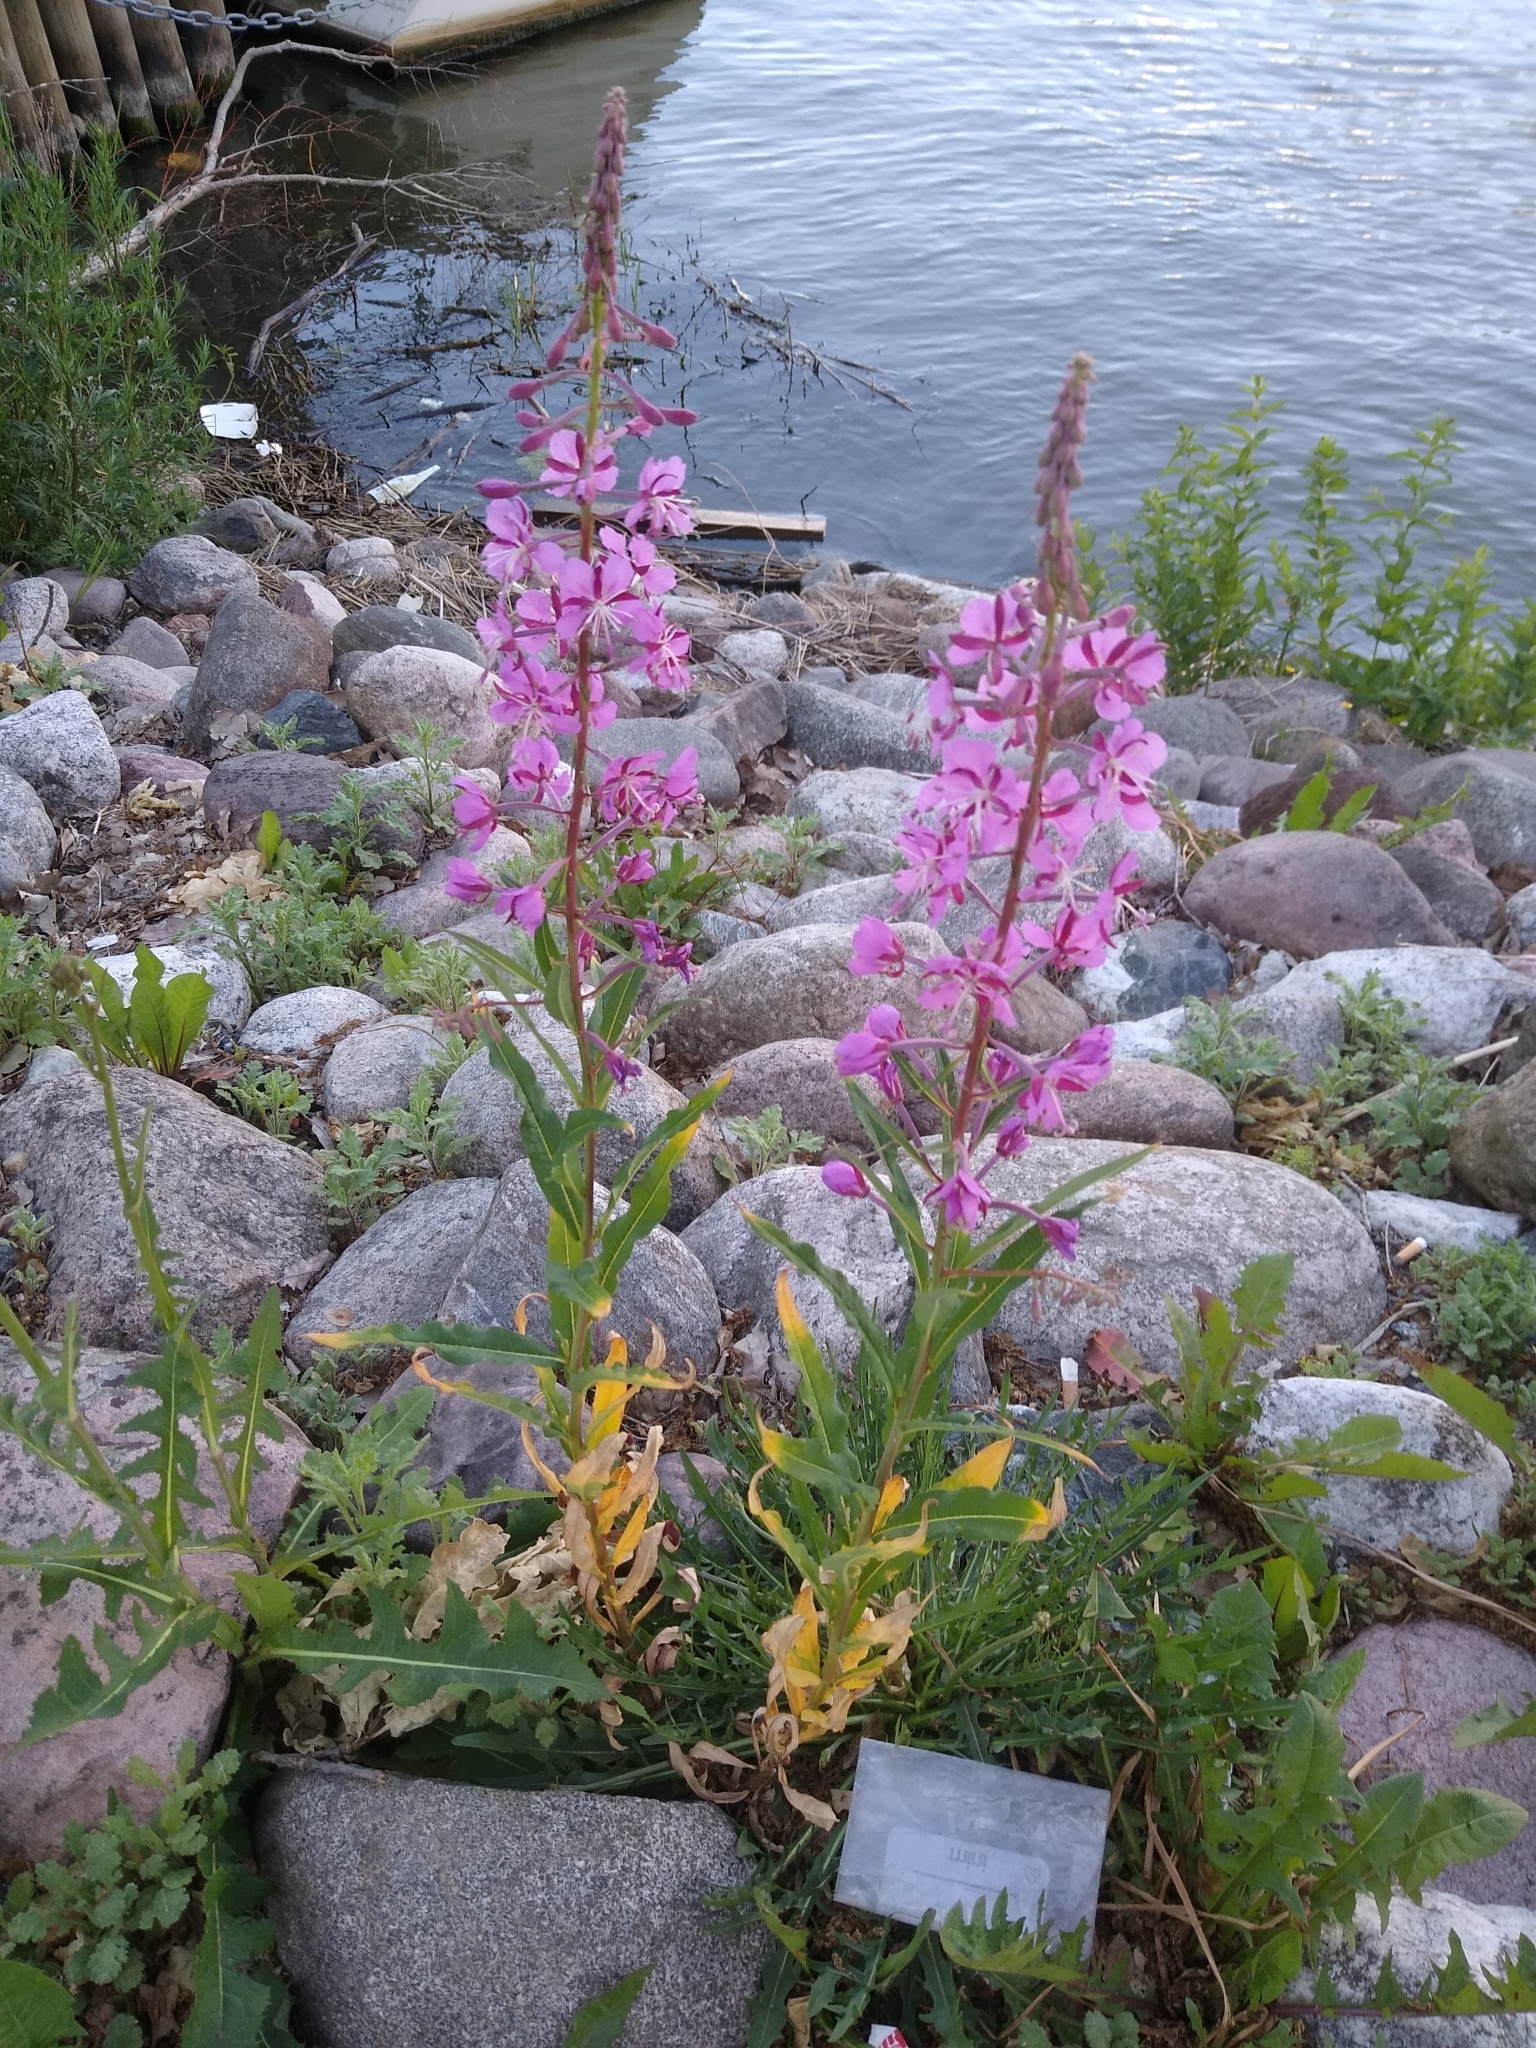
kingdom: Plantae
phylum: Tracheophyta
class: Magnoliopsida
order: Myrtales
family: Onagraceae
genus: Chamaenerion
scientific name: Chamaenerion angustifolium
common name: Fireweed
